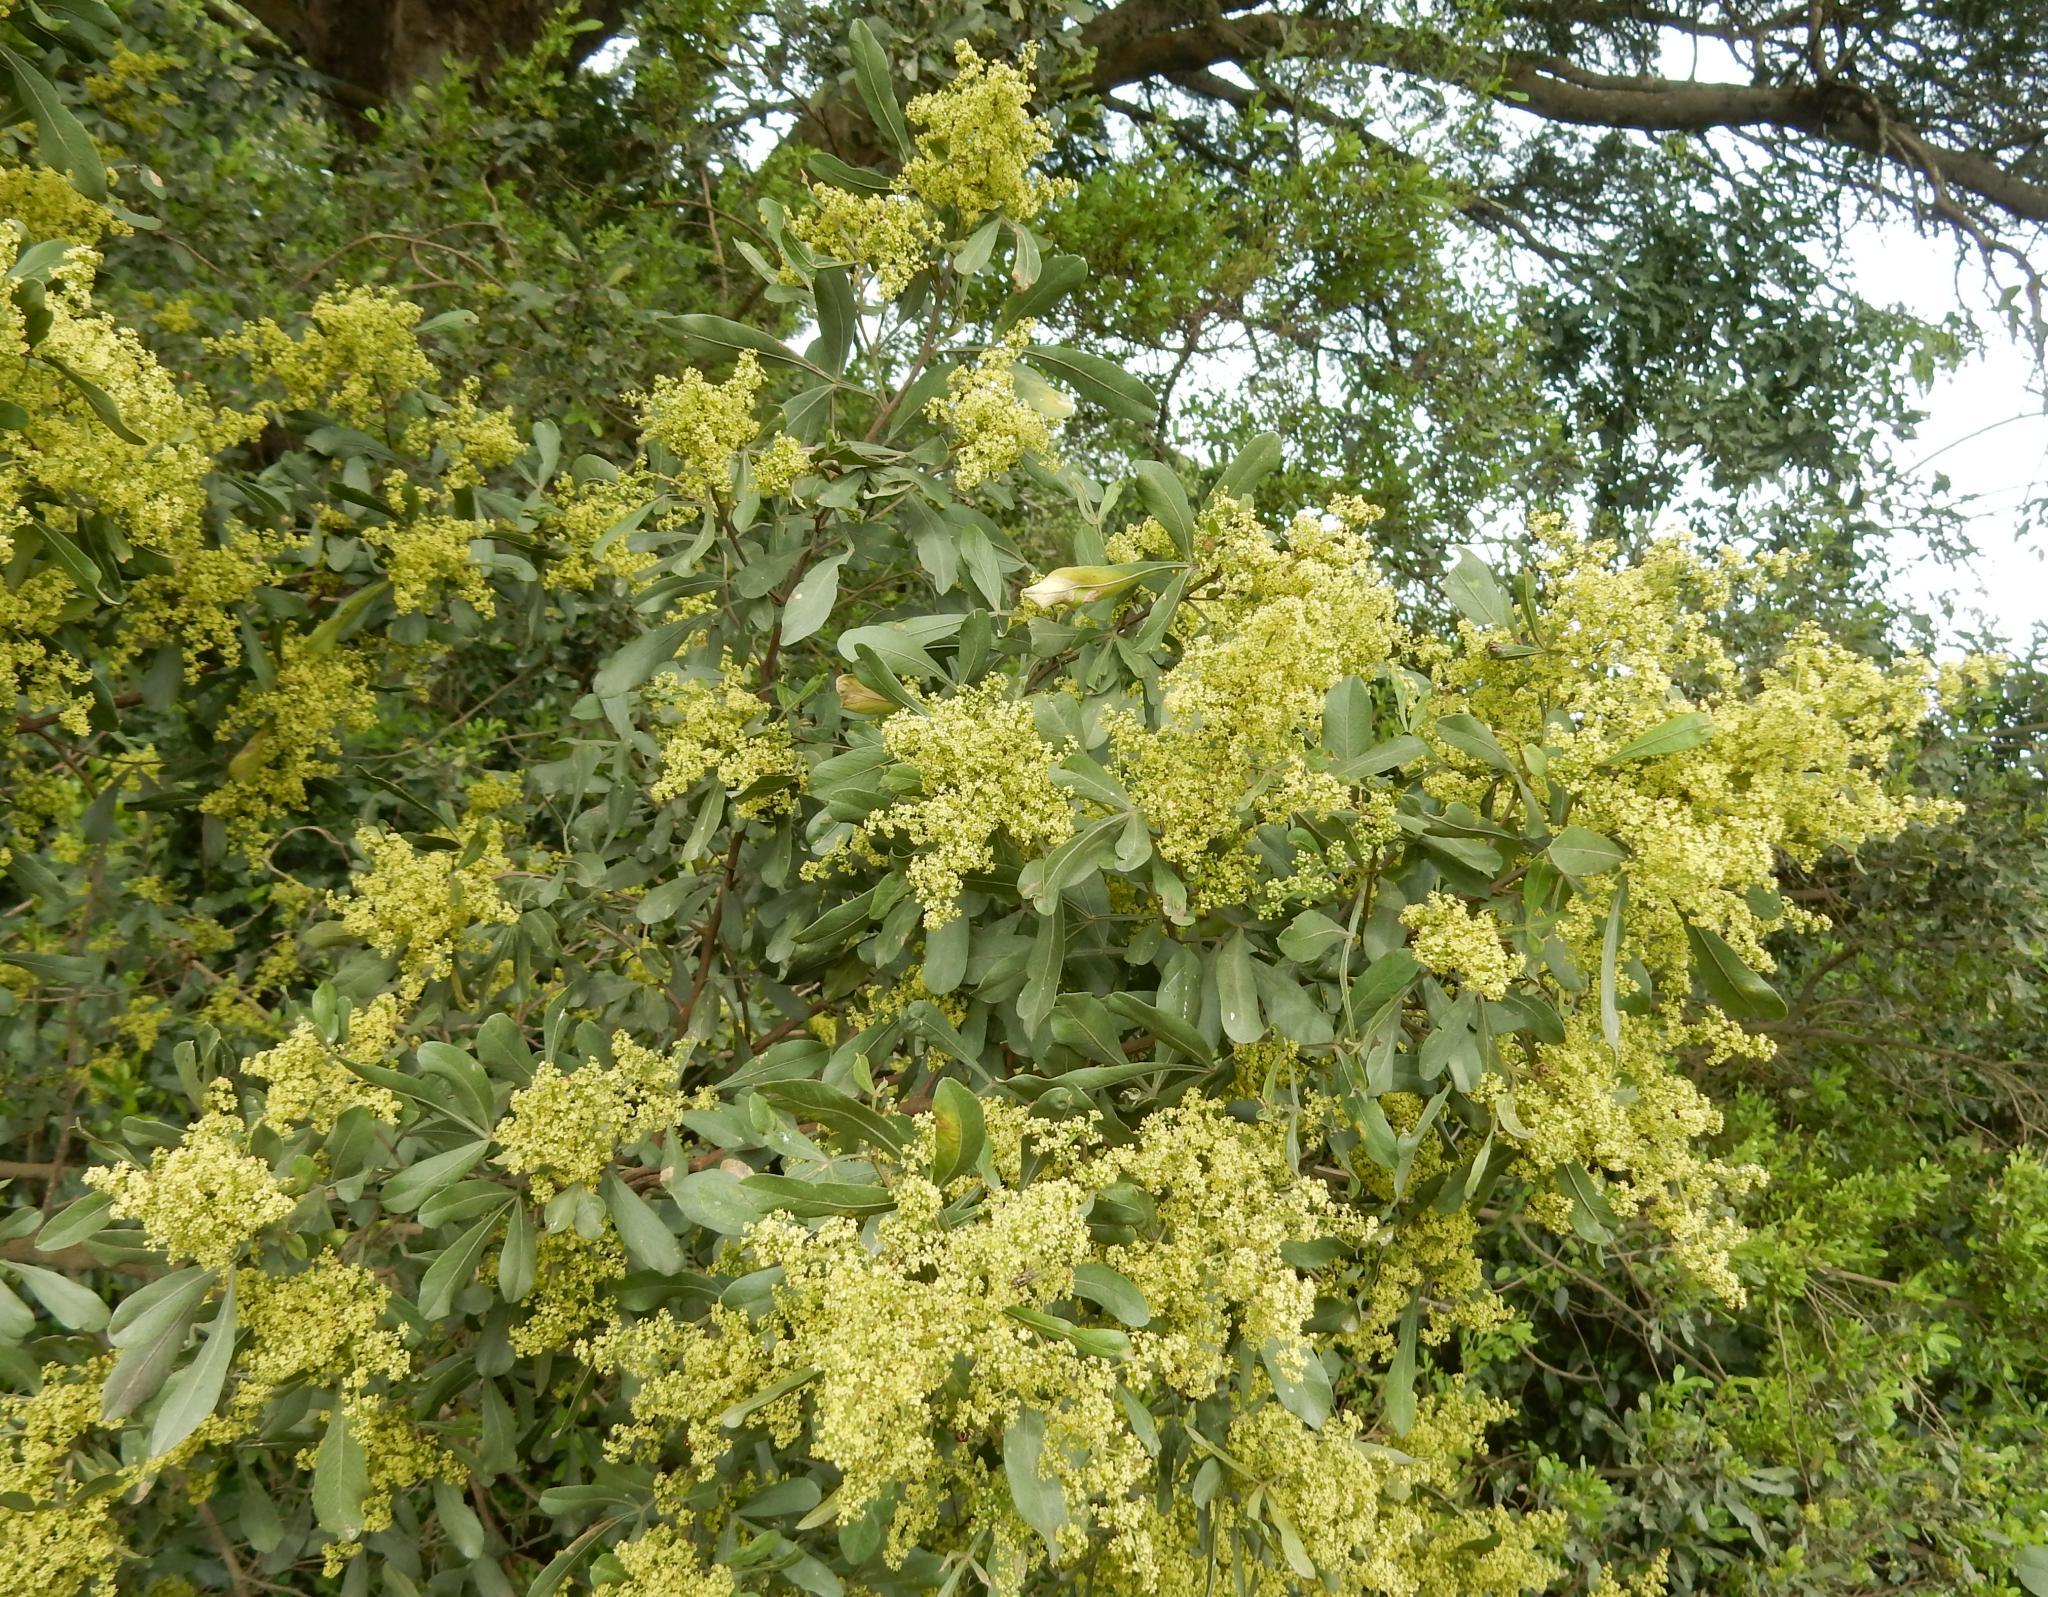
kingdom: Plantae
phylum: Tracheophyta
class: Magnoliopsida
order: Sapindales
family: Anacardiaceae
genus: Searsia
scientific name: Searsia pallens
